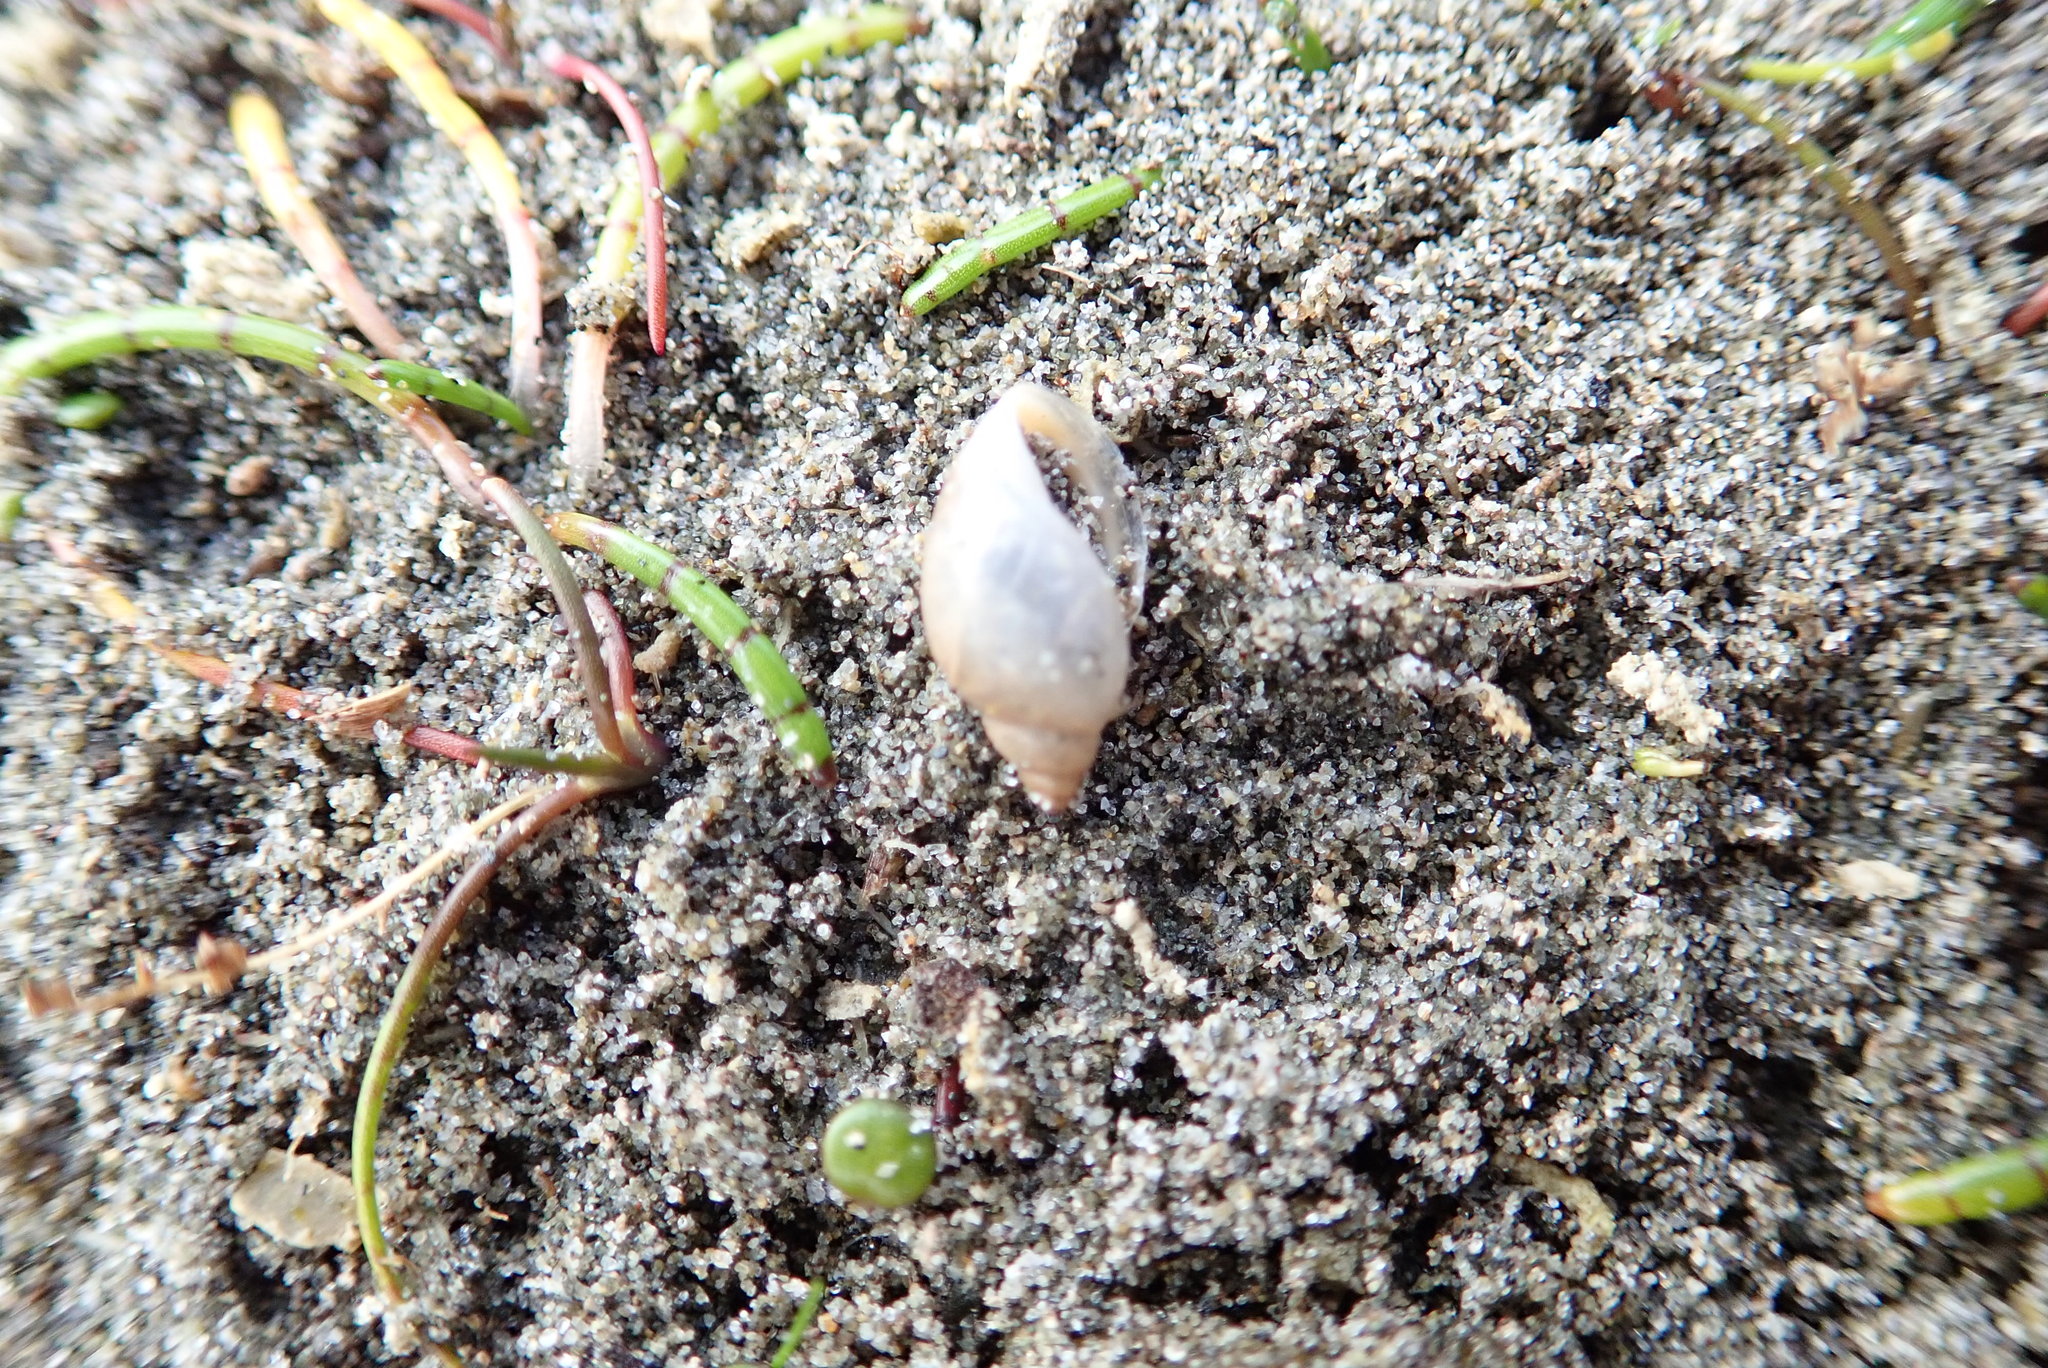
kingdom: Animalia
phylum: Mollusca
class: Gastropoda
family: Physidae
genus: Physella
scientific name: Physella acuta
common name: European physa
